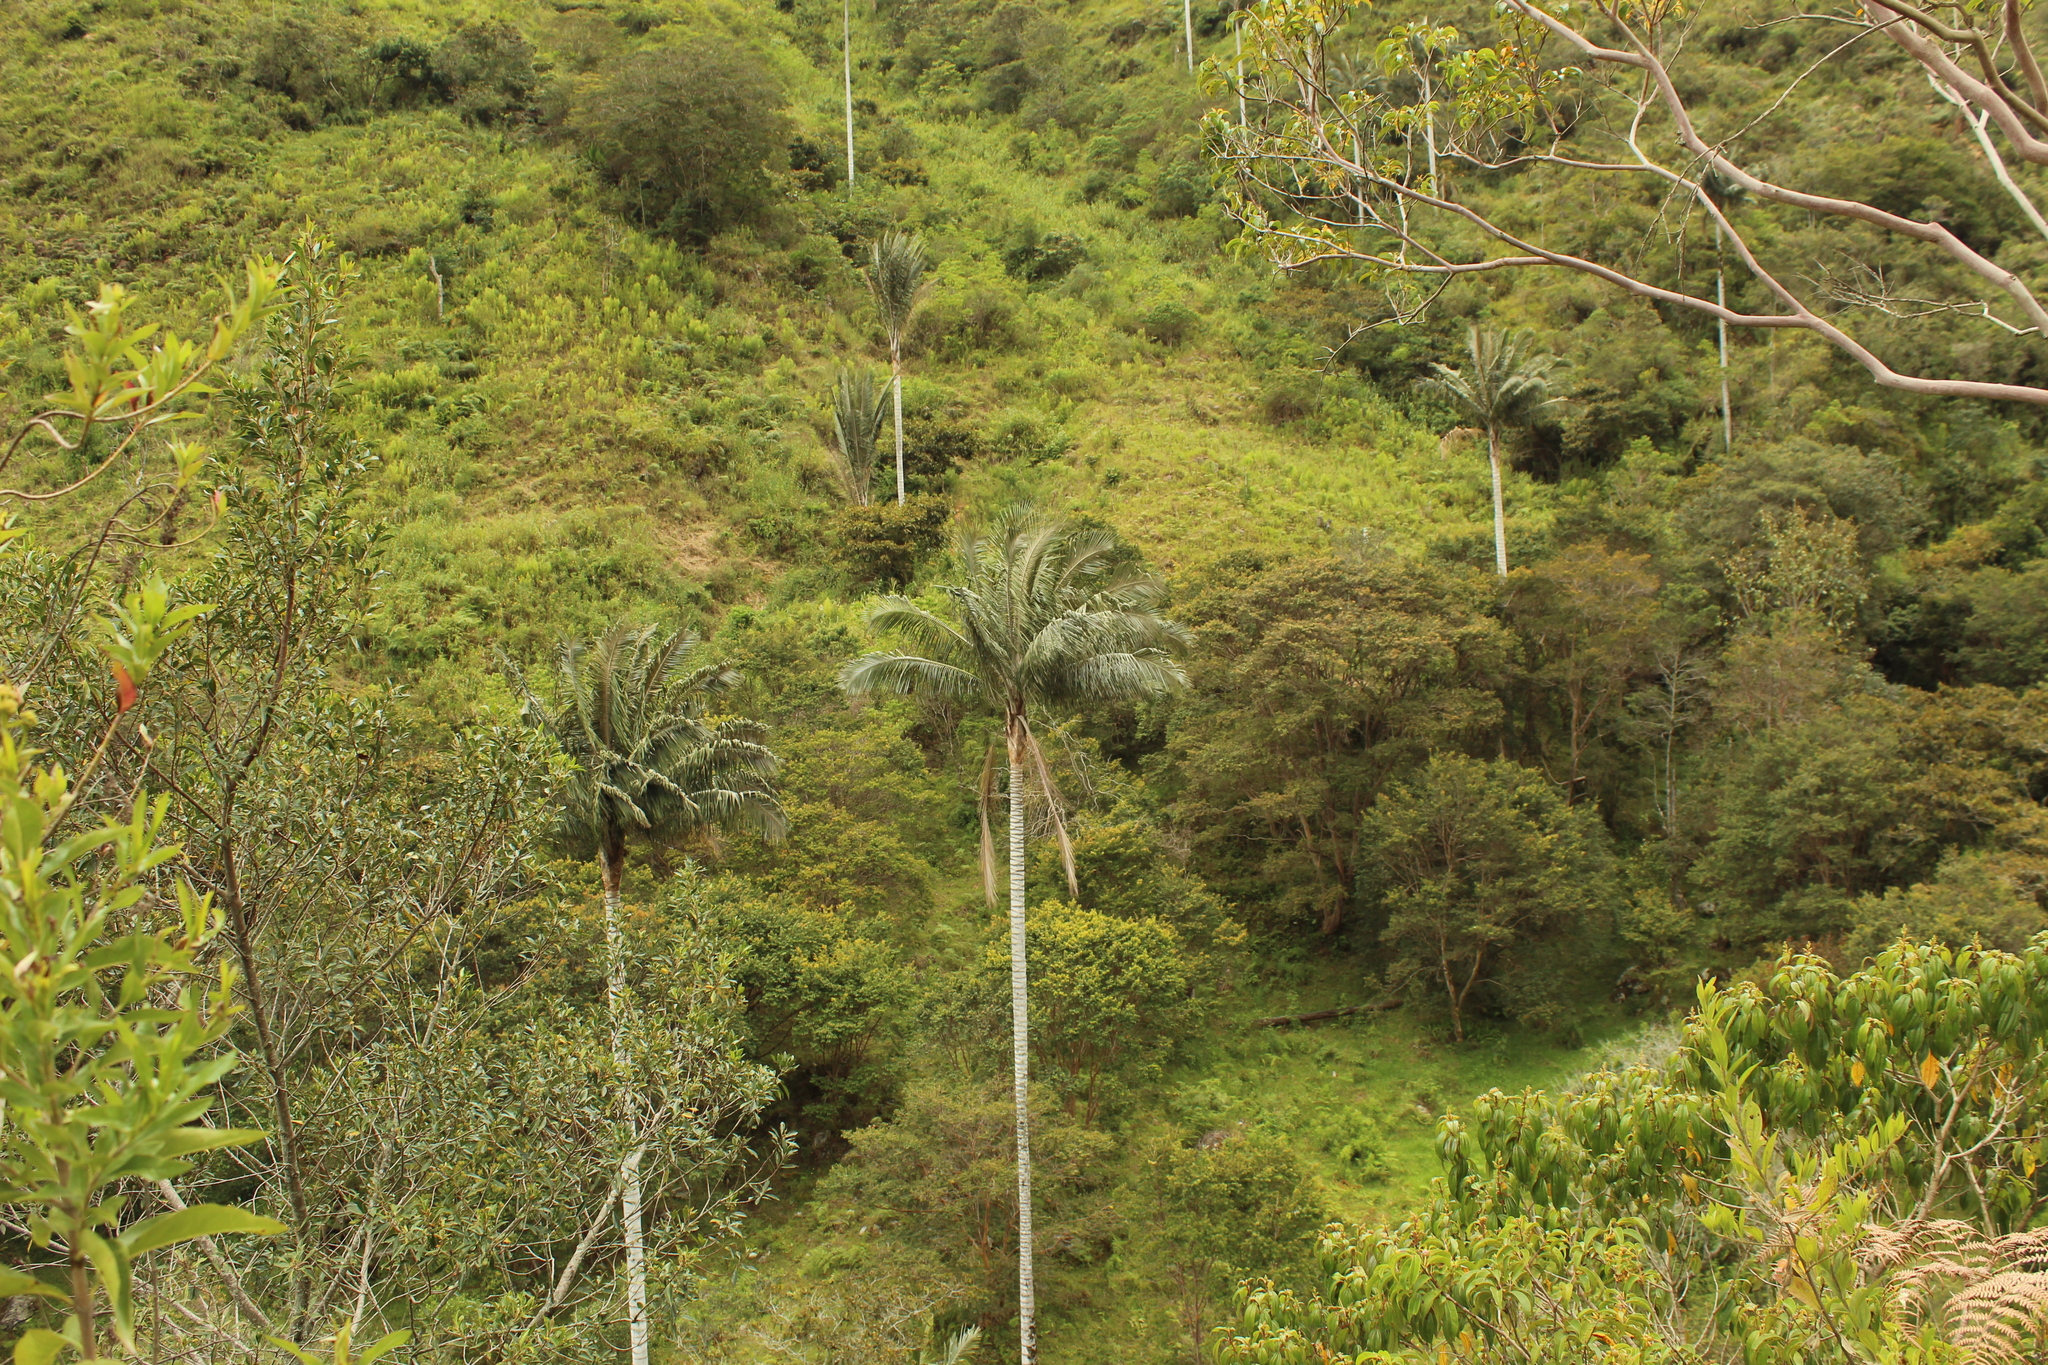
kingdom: Plantae
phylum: Tracheophyta
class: Liliopsida
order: Arecales
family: Arecaceae
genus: Ceroxylon
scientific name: Ceroxylon quindiuense
